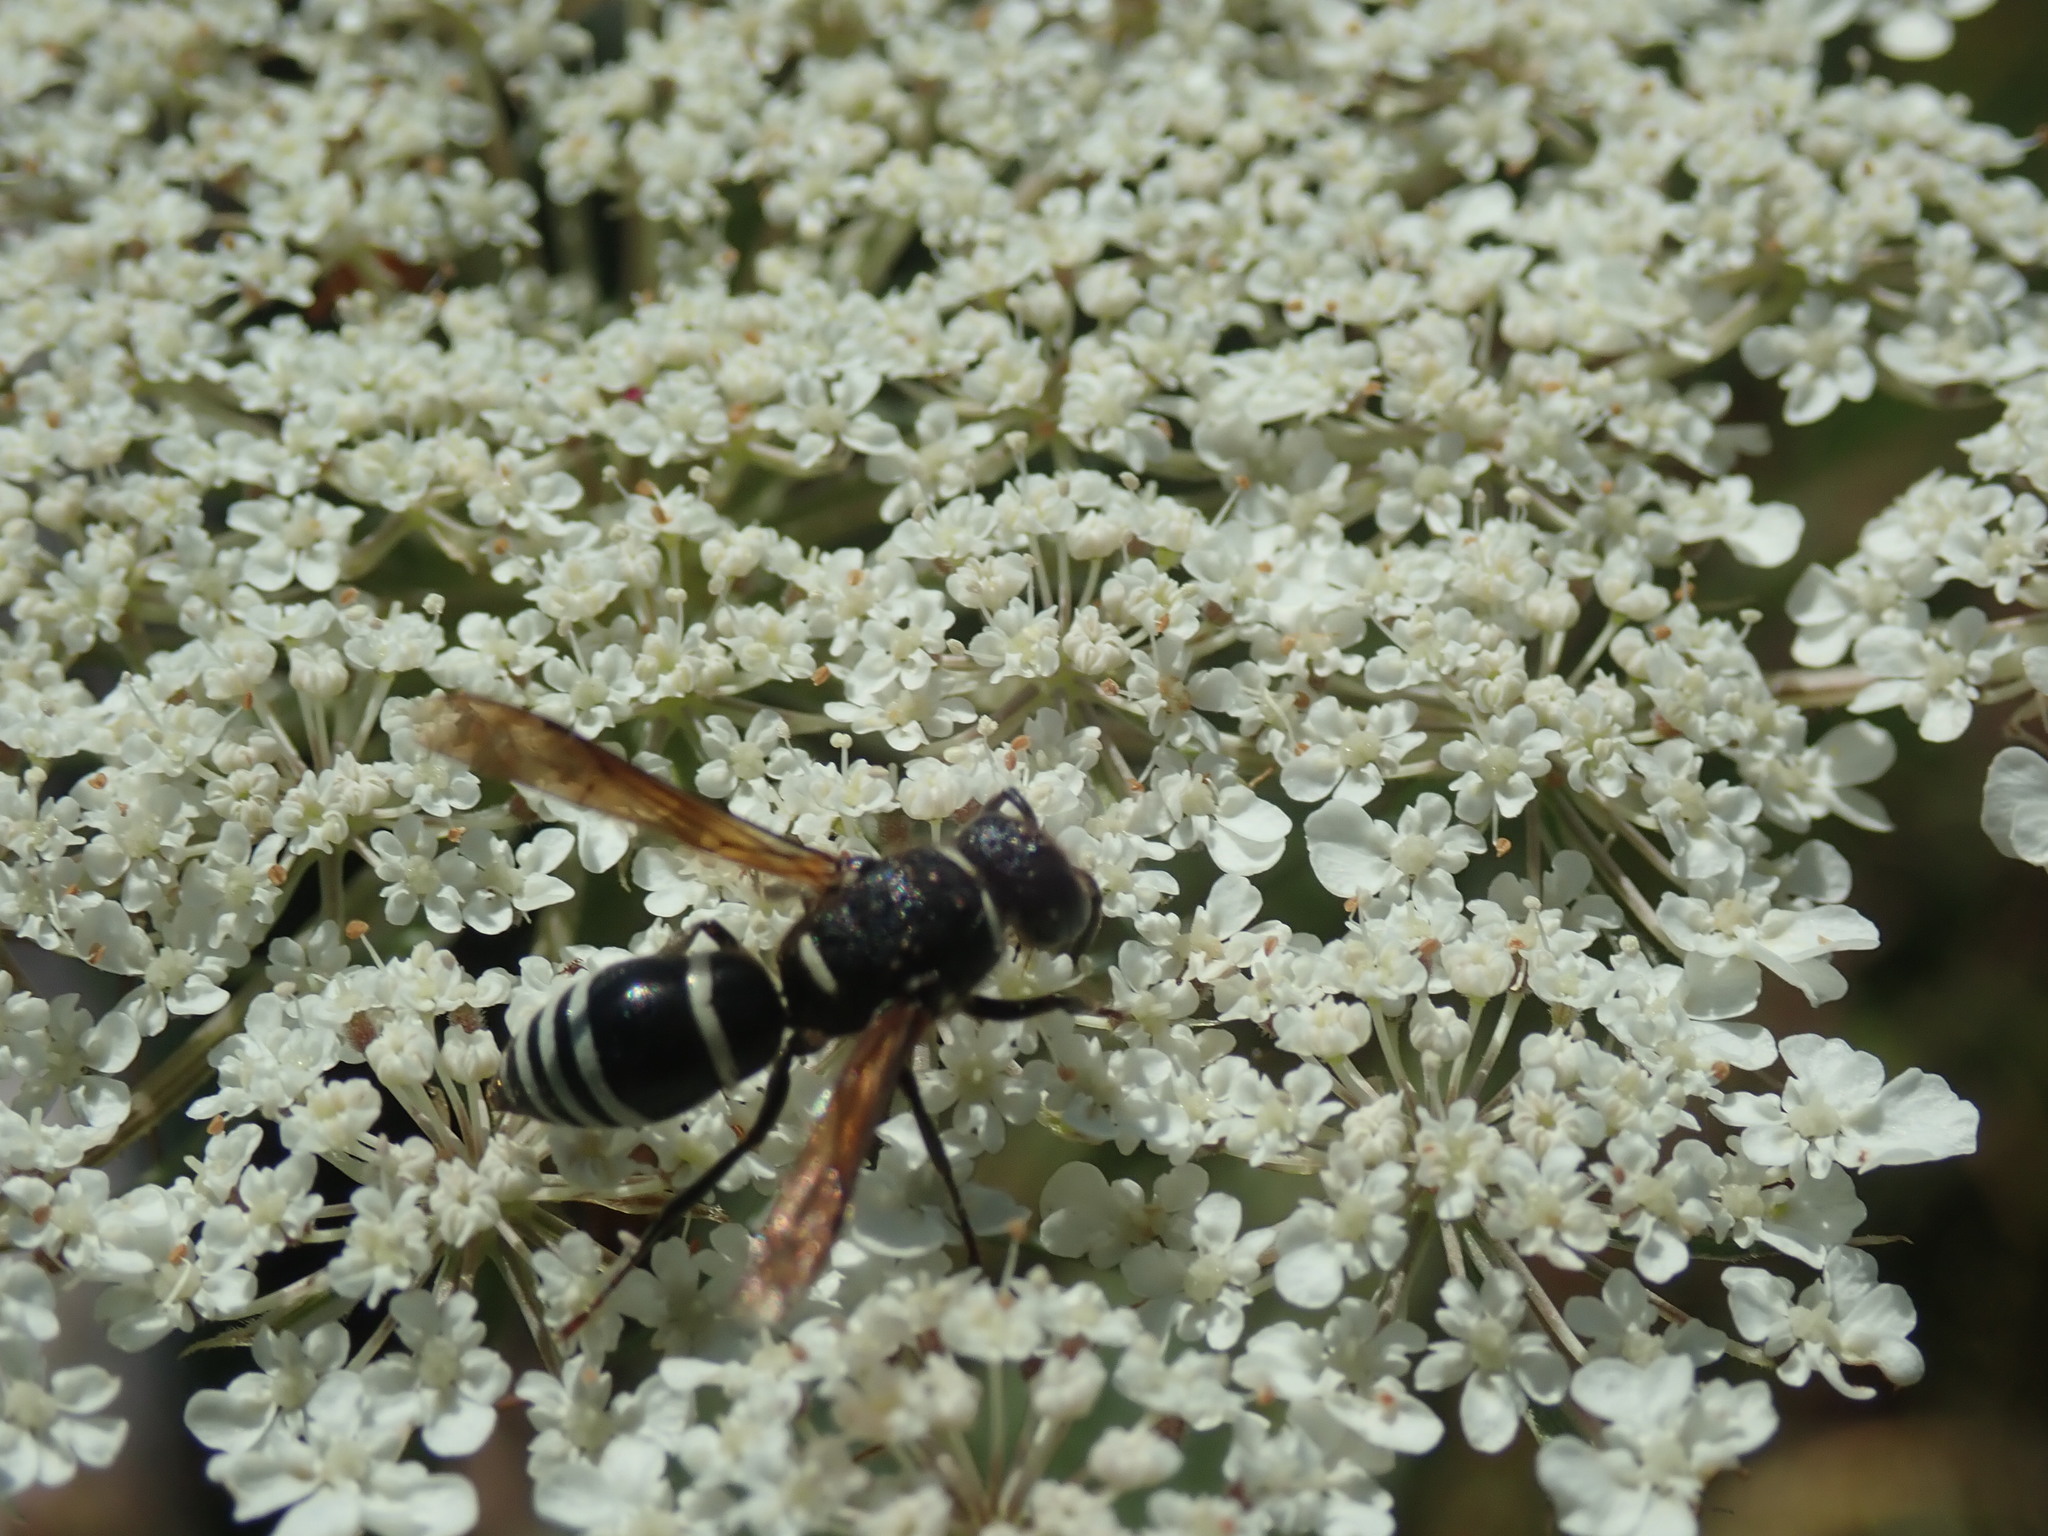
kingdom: Animalia
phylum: Arthropoda
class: Insecta
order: Hymenoptera
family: Eumenidae
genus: Euodynerus
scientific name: Euodynerus leucomelas
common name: Wasp
